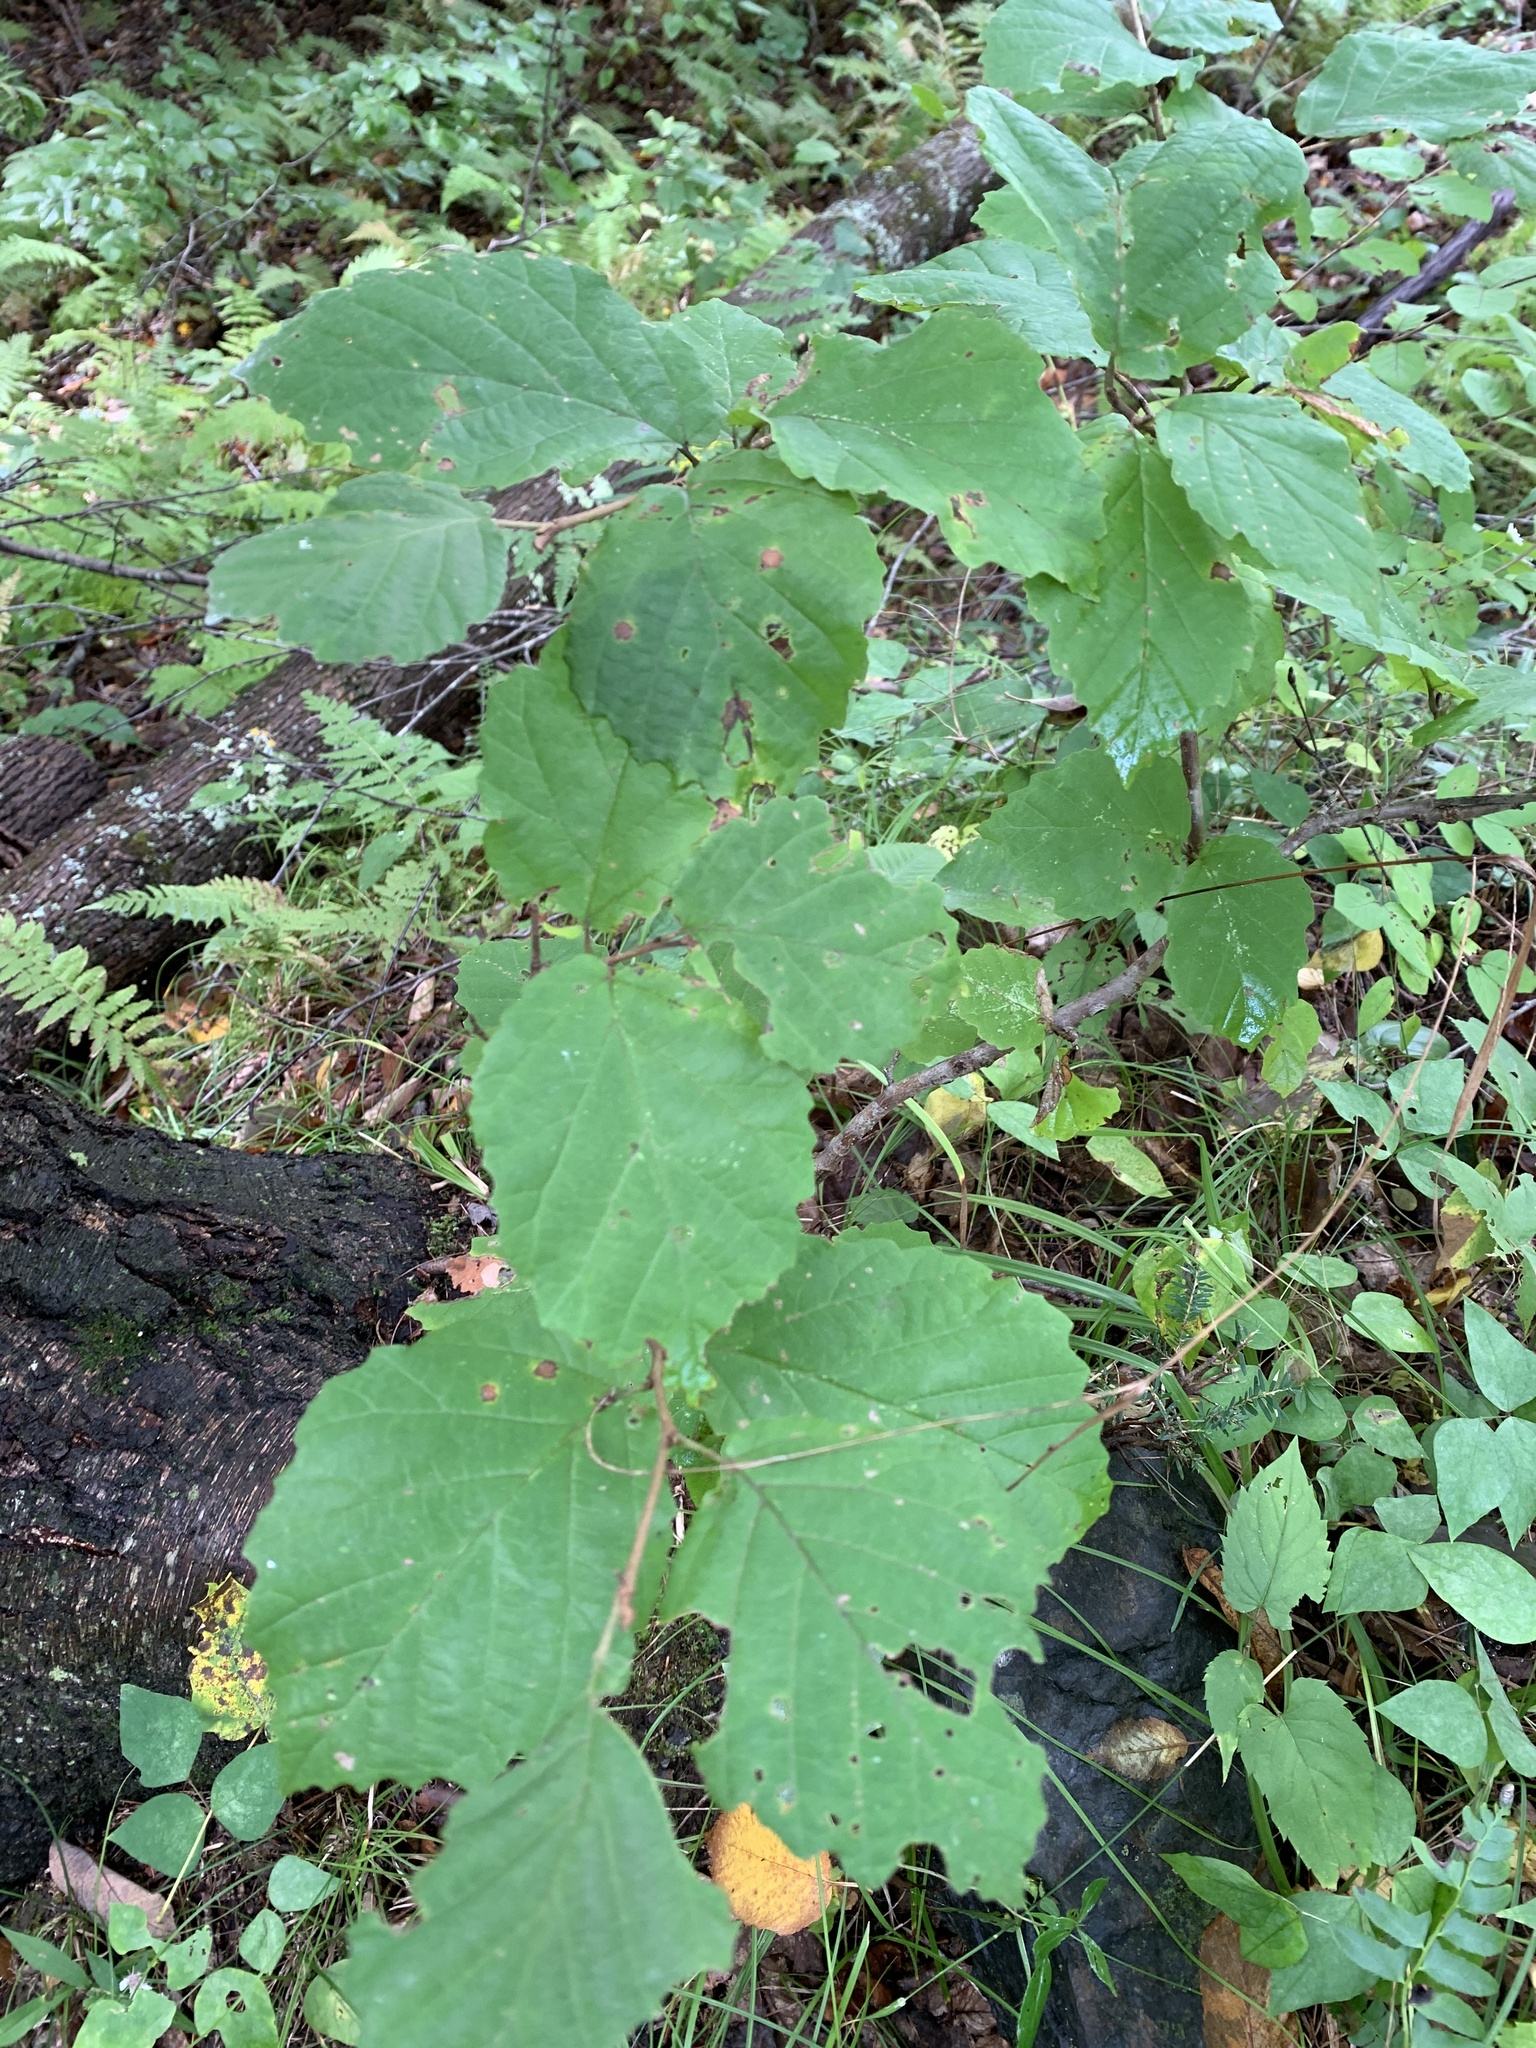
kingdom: Plantae
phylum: Tracheophyta
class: Magnoliopsida
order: Saxifragales
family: Hamamelidaceae
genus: Hamamelis
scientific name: Hamamelis virginiana
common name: Witch-hazel
